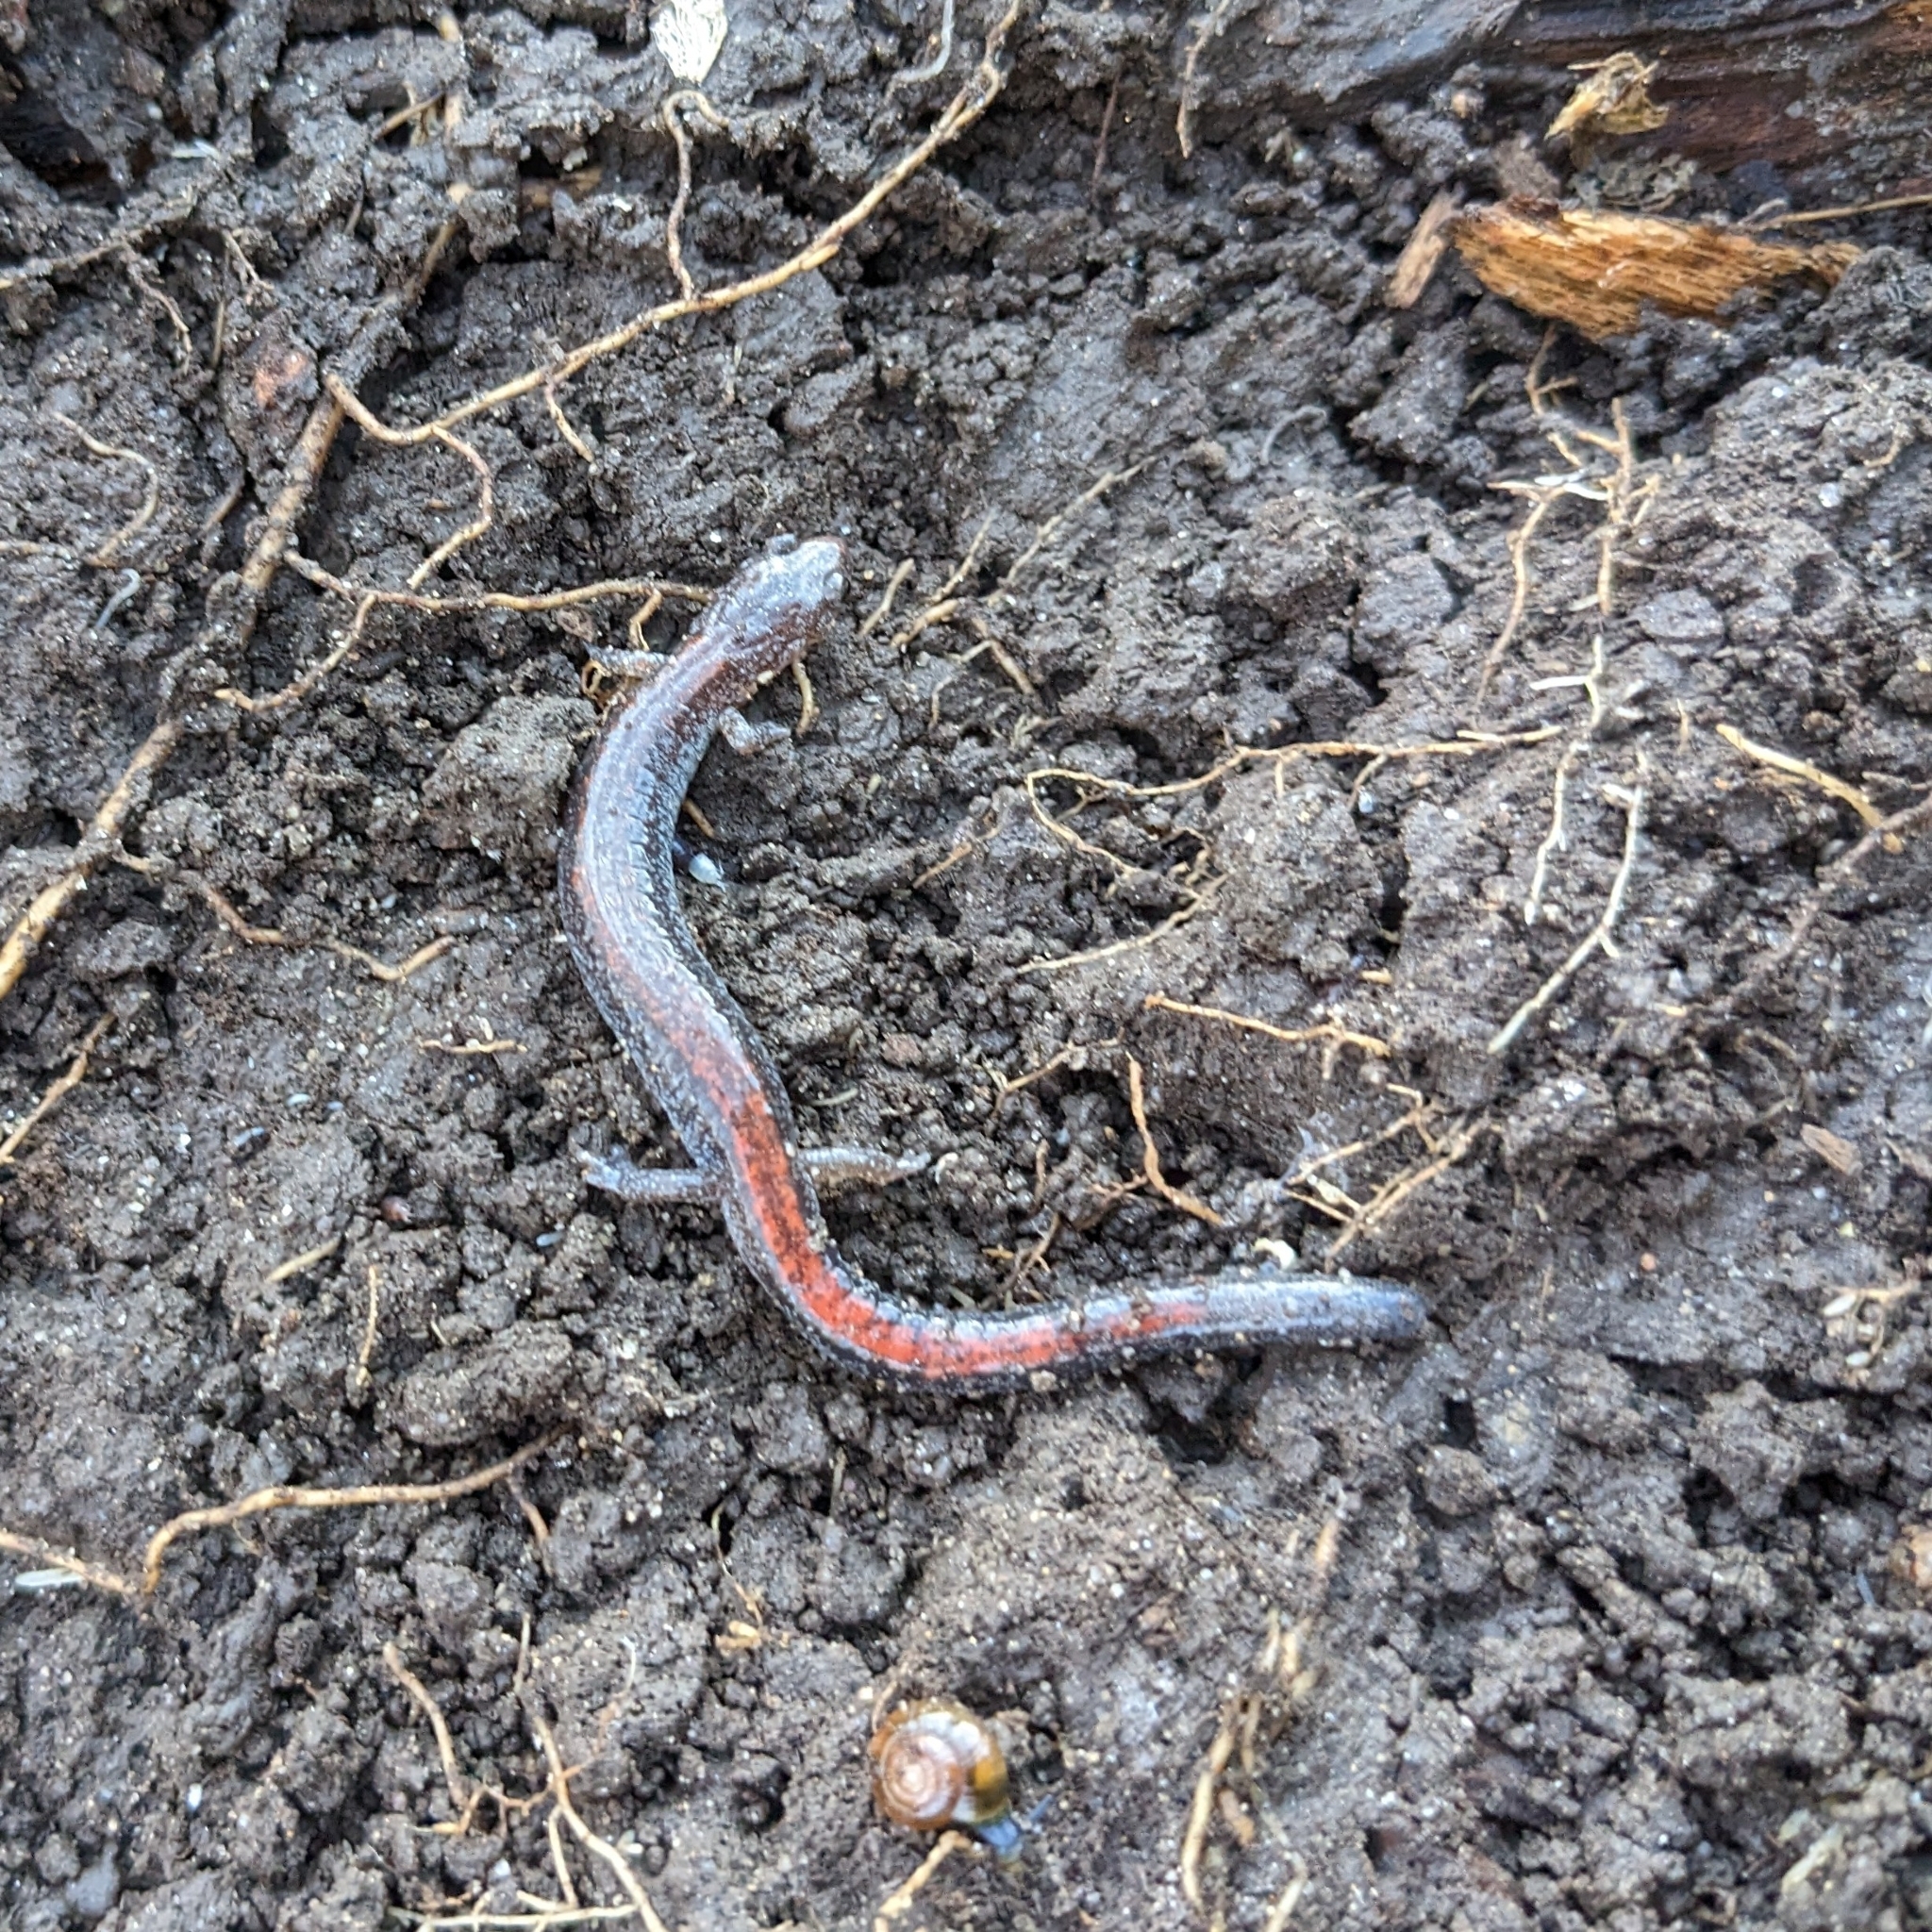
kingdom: Animalia
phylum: Chordata
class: Amphibia
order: Caudata
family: Plethodontidae
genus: Plethodon
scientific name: Plethodon cinereus
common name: Redback salamander
